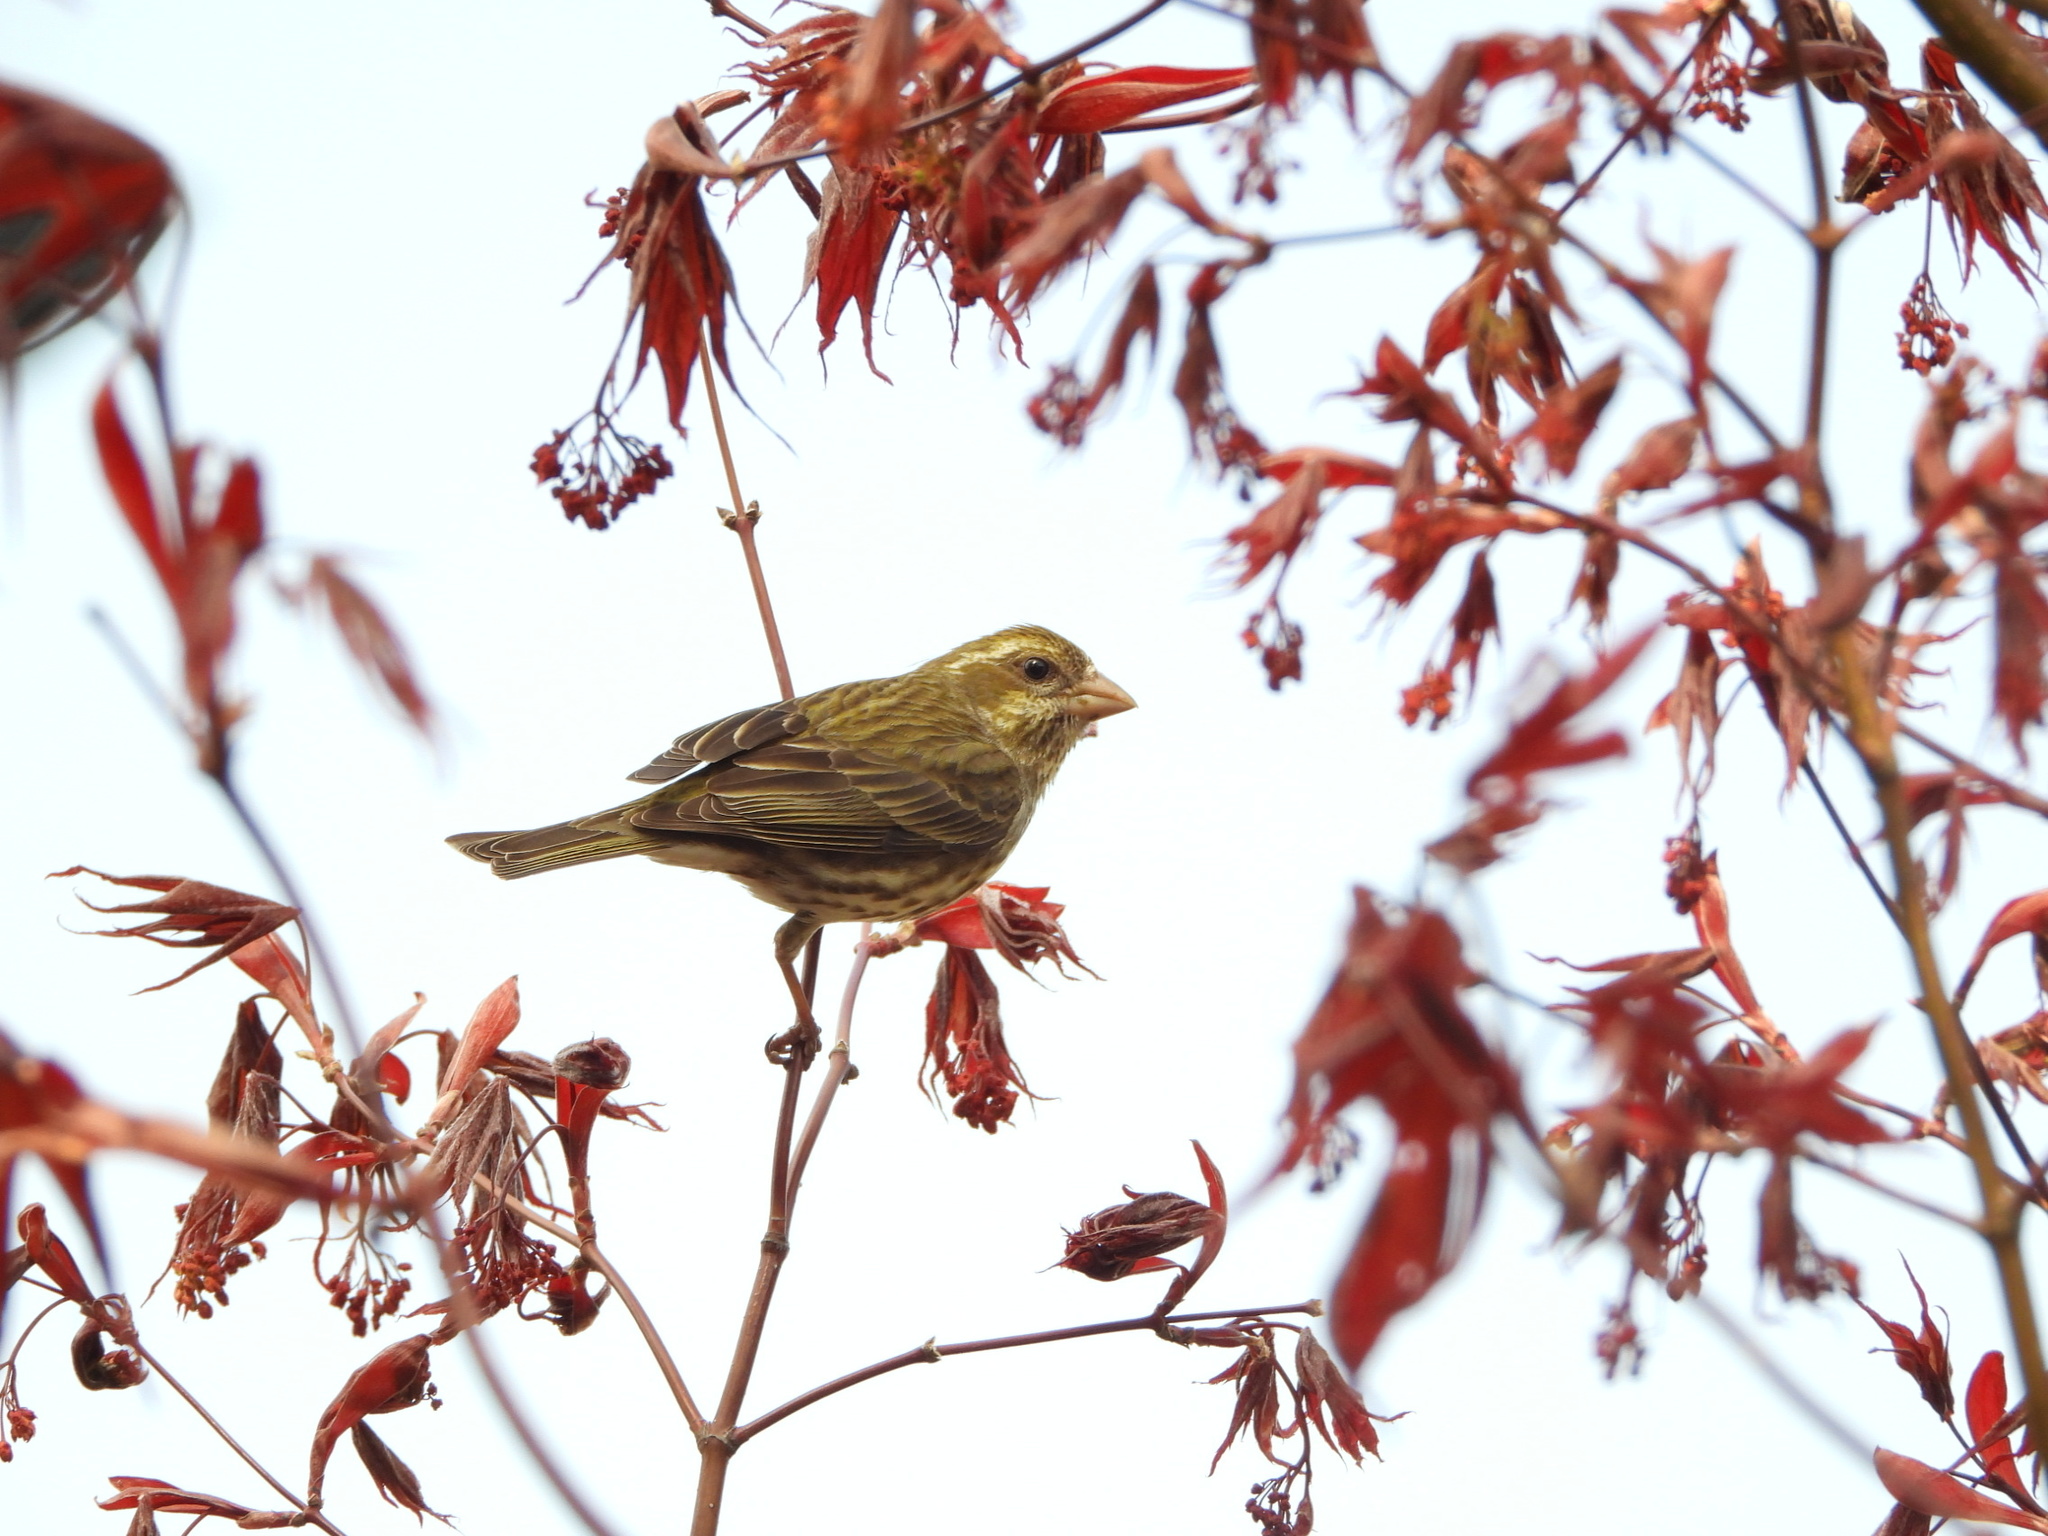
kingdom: Animalia
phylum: Chordata
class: Aves
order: Passeriformes
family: Fringillidae
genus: Haemorhous
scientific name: Haemorhous purpureus
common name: Purple finch
